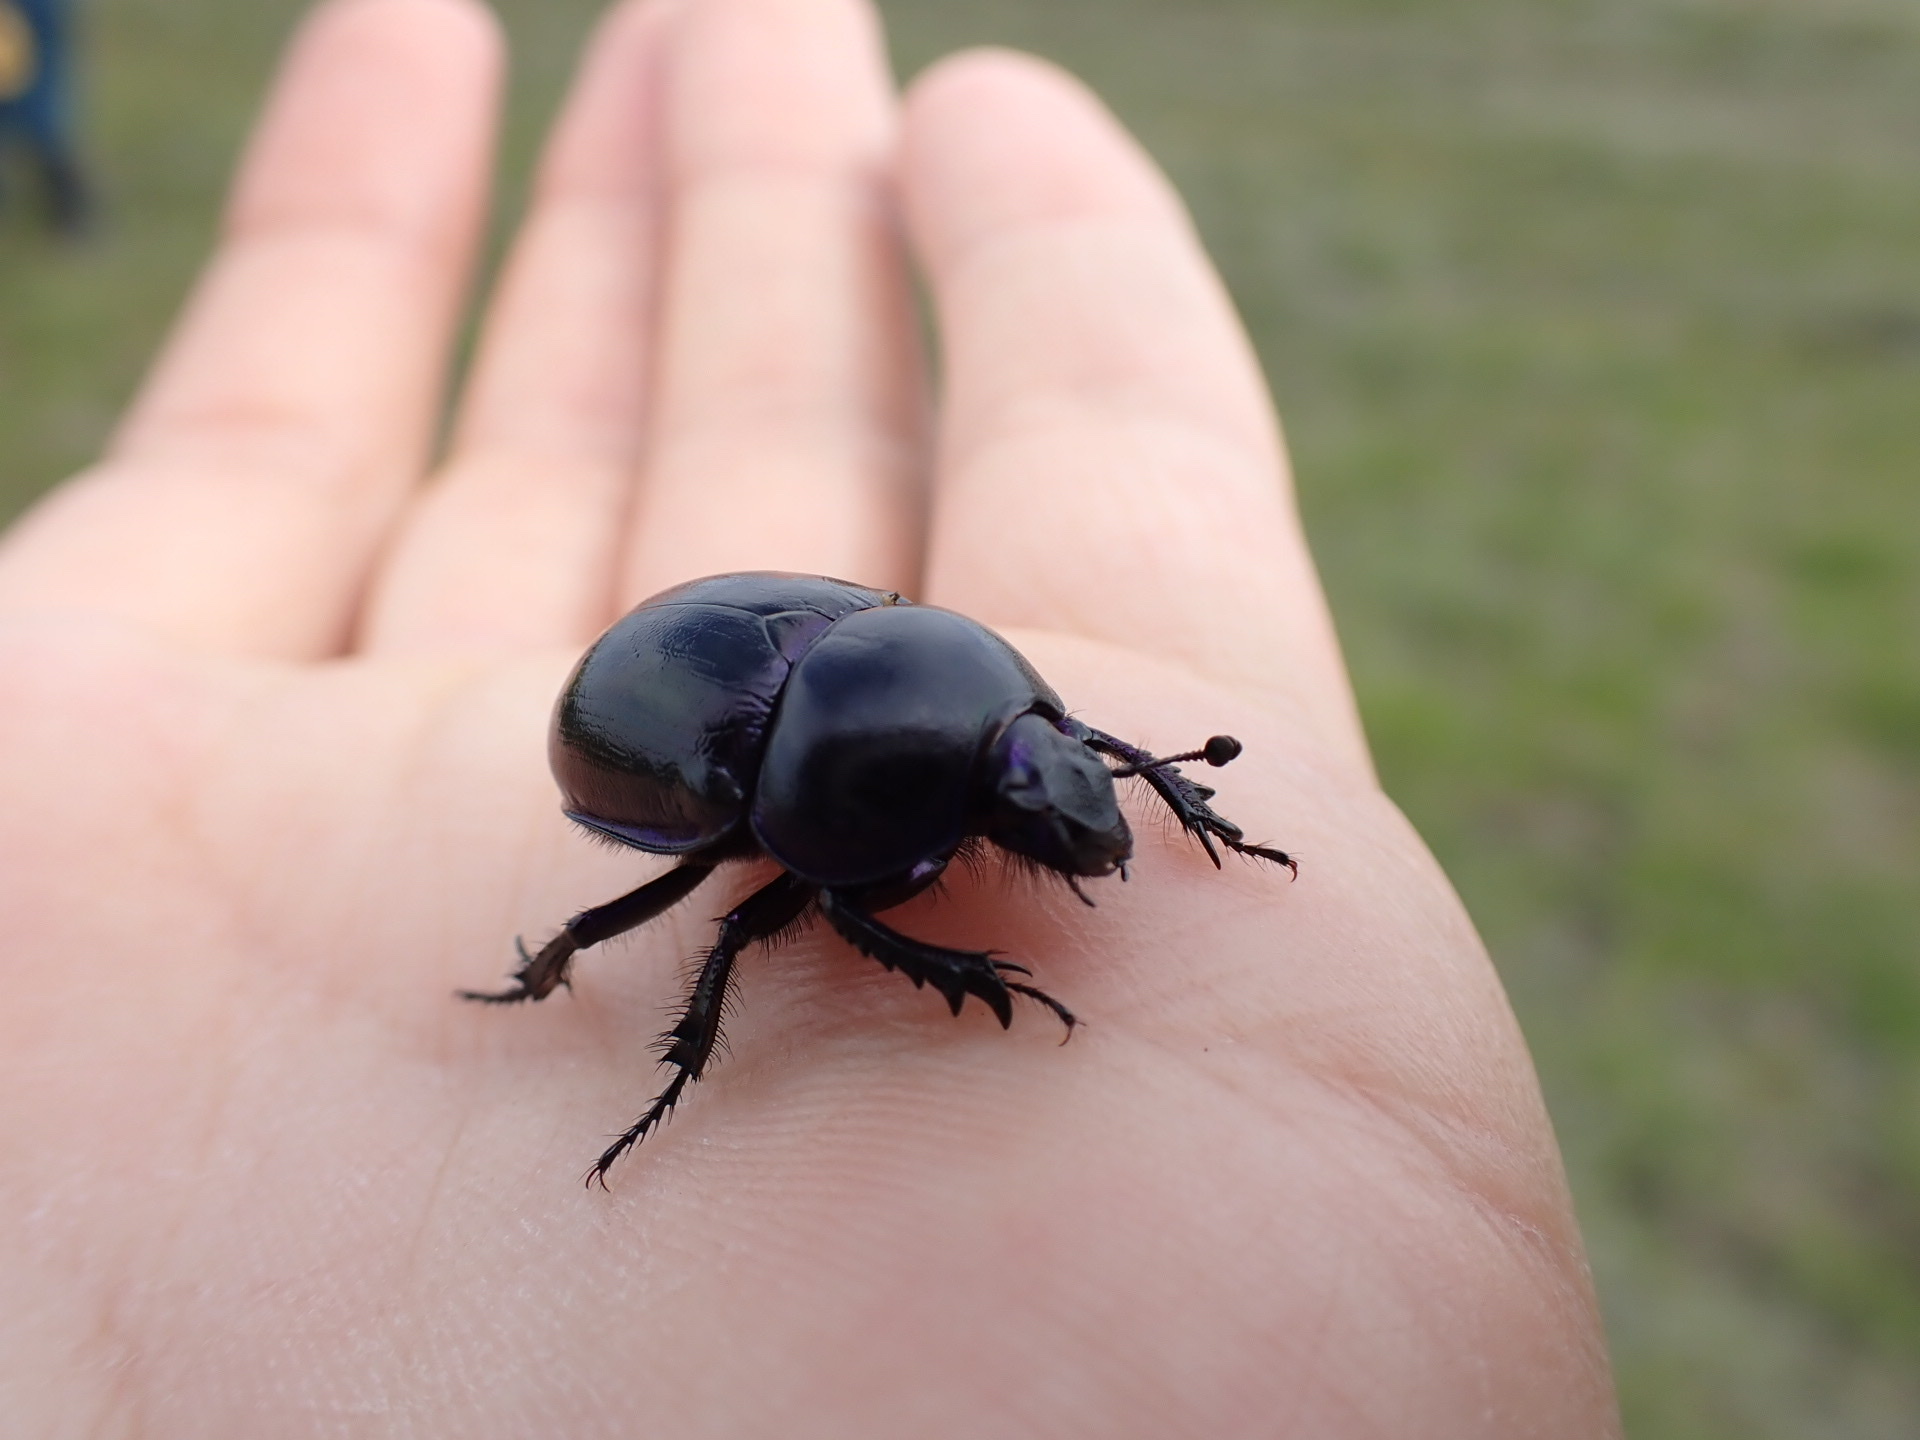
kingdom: Animalia
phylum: Arthropoda
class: Insecta
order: Coleoptera
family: Geotrupidae
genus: Trypocopris
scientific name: Trypocopris vernalis
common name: Spring dumbledor
